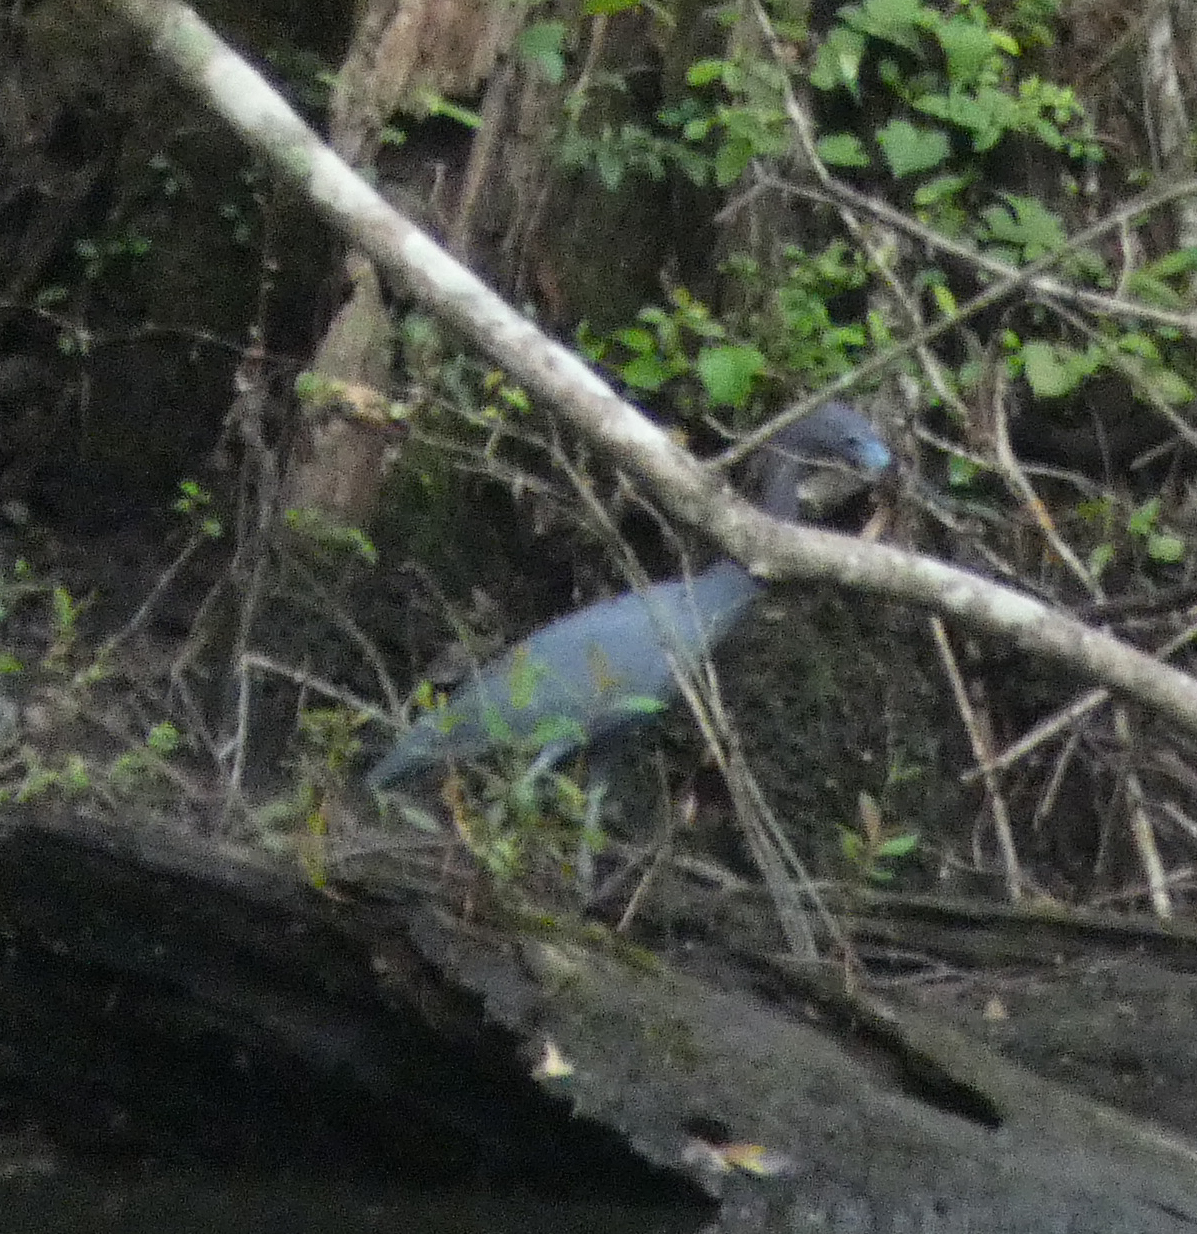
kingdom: Animalia
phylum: Chordata
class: Aves
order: Pelecaniformes
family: Ardeidae
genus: Egretta
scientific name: Egretta caerulea
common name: Little blue heron
